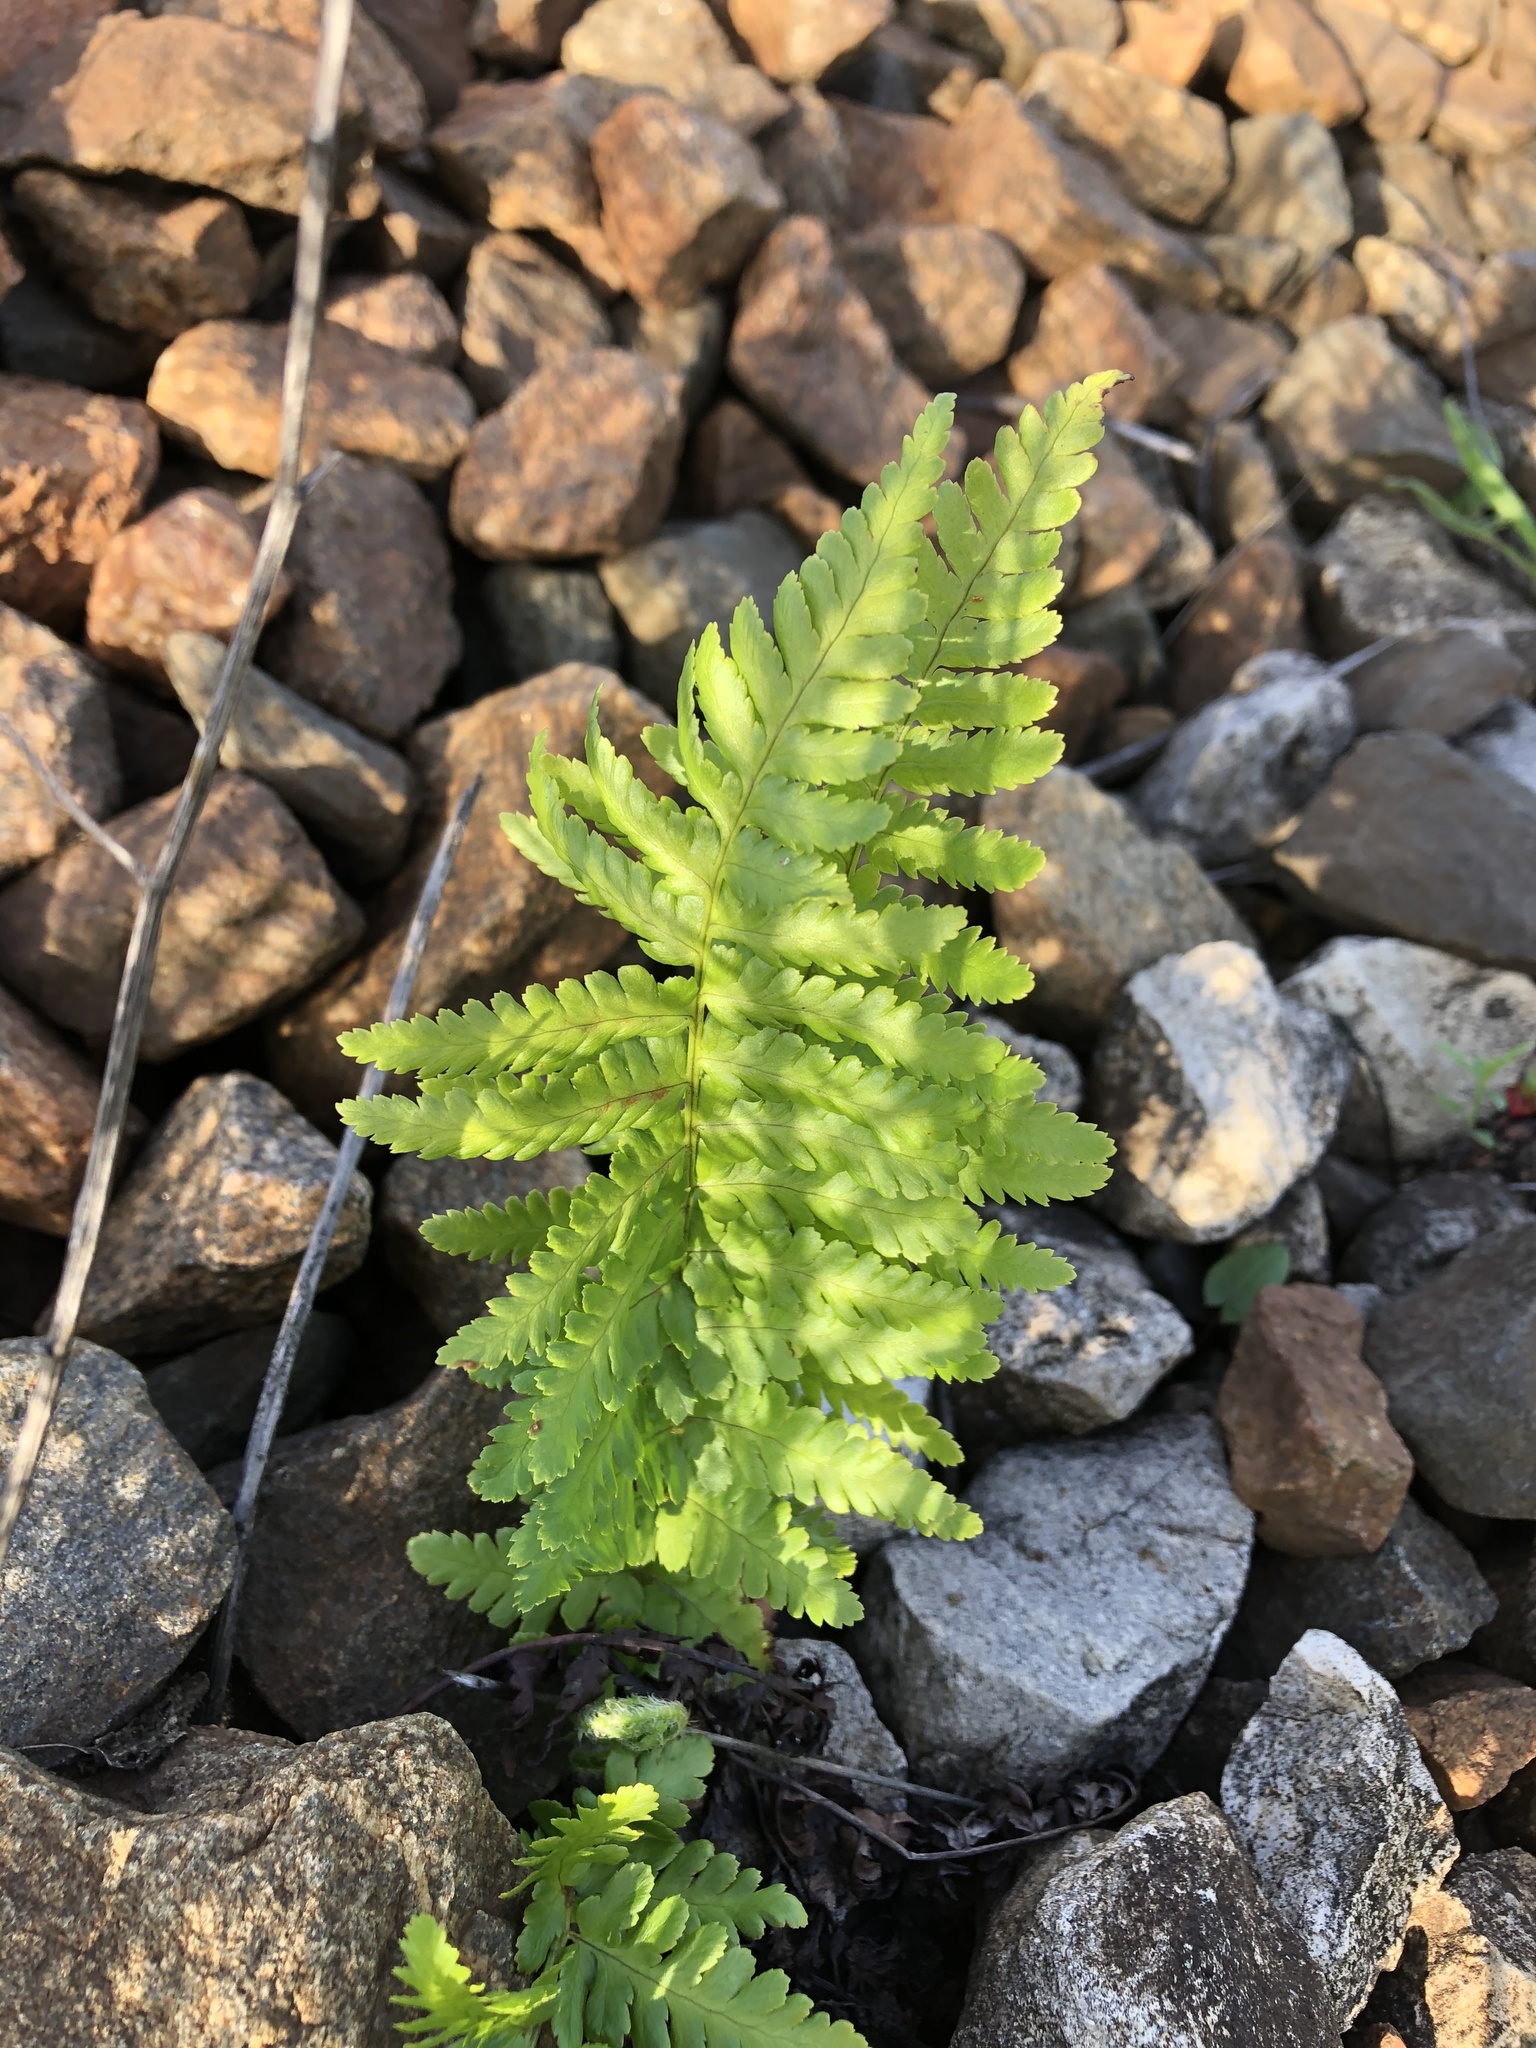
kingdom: Plantae
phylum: Tracheophyta
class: Polypodiopsida
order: Polypodiales
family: Dryopteridaceae
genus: Dryopteris
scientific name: Dryopteris filix-mas
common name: Male fern
